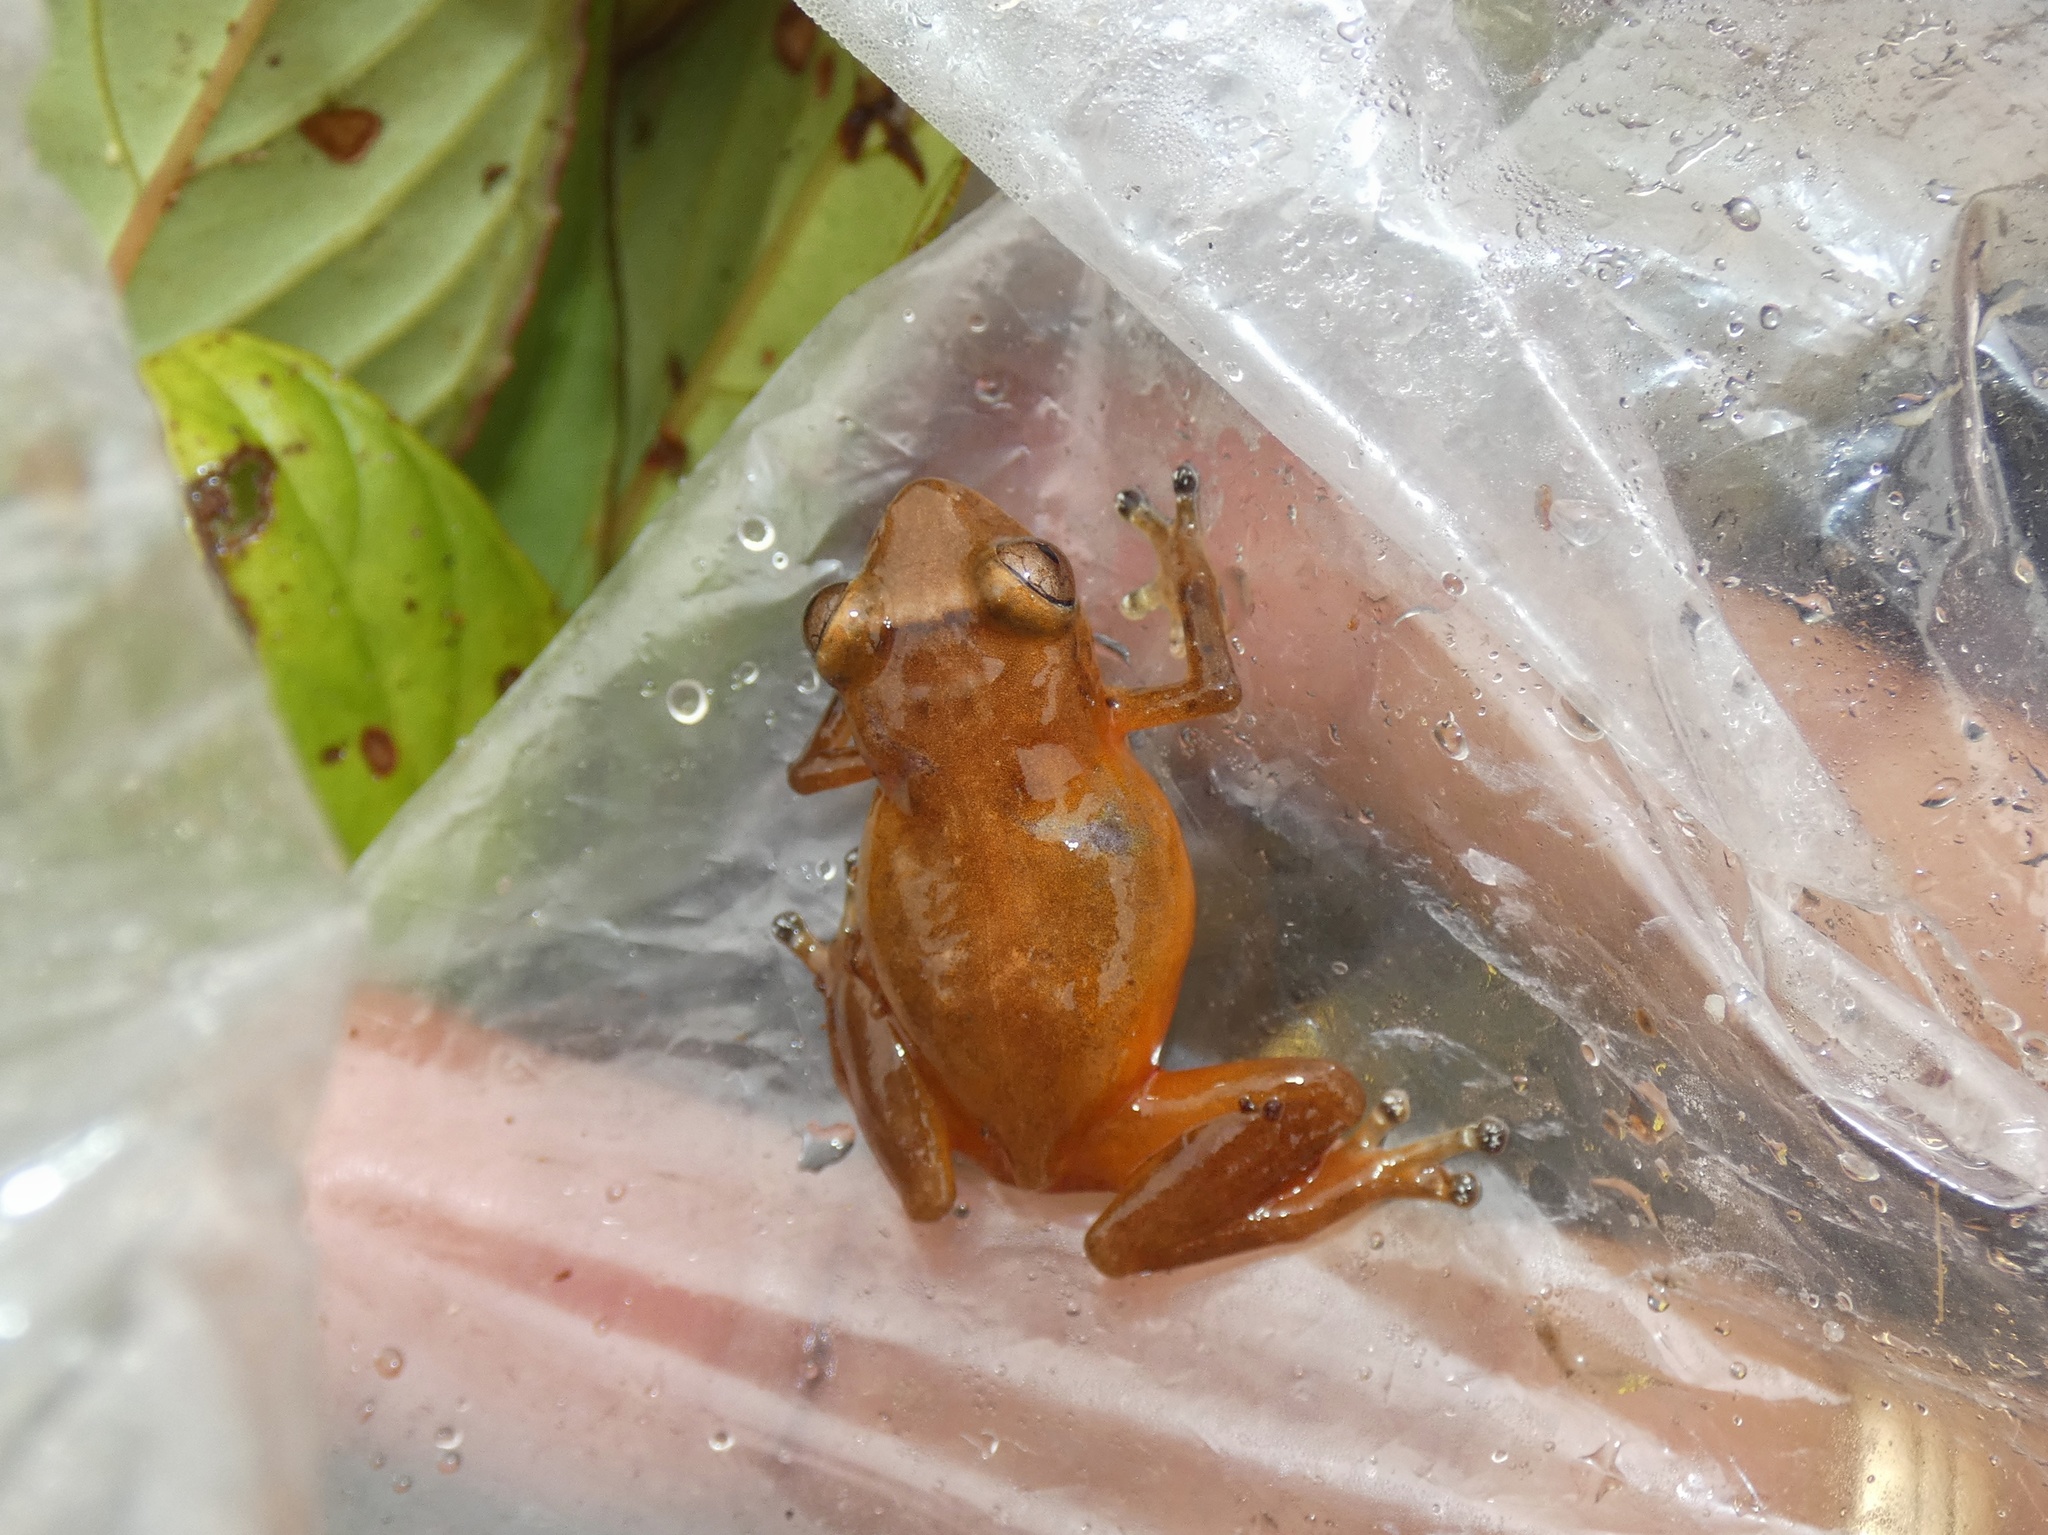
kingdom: Animalia
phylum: Chordata
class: Amphibia
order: Anura
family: Eleutherodactylidae
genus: Diasporus
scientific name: Diasporus citrinobapheus
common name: Yellow dink frog
